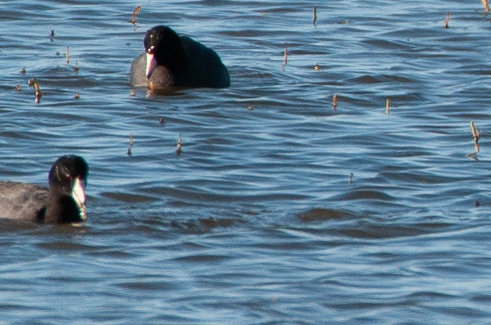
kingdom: Animalia
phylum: Chordata
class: Aves
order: Gruiformes
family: Rallidae
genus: Fulica
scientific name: Fulica americana
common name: American coot
